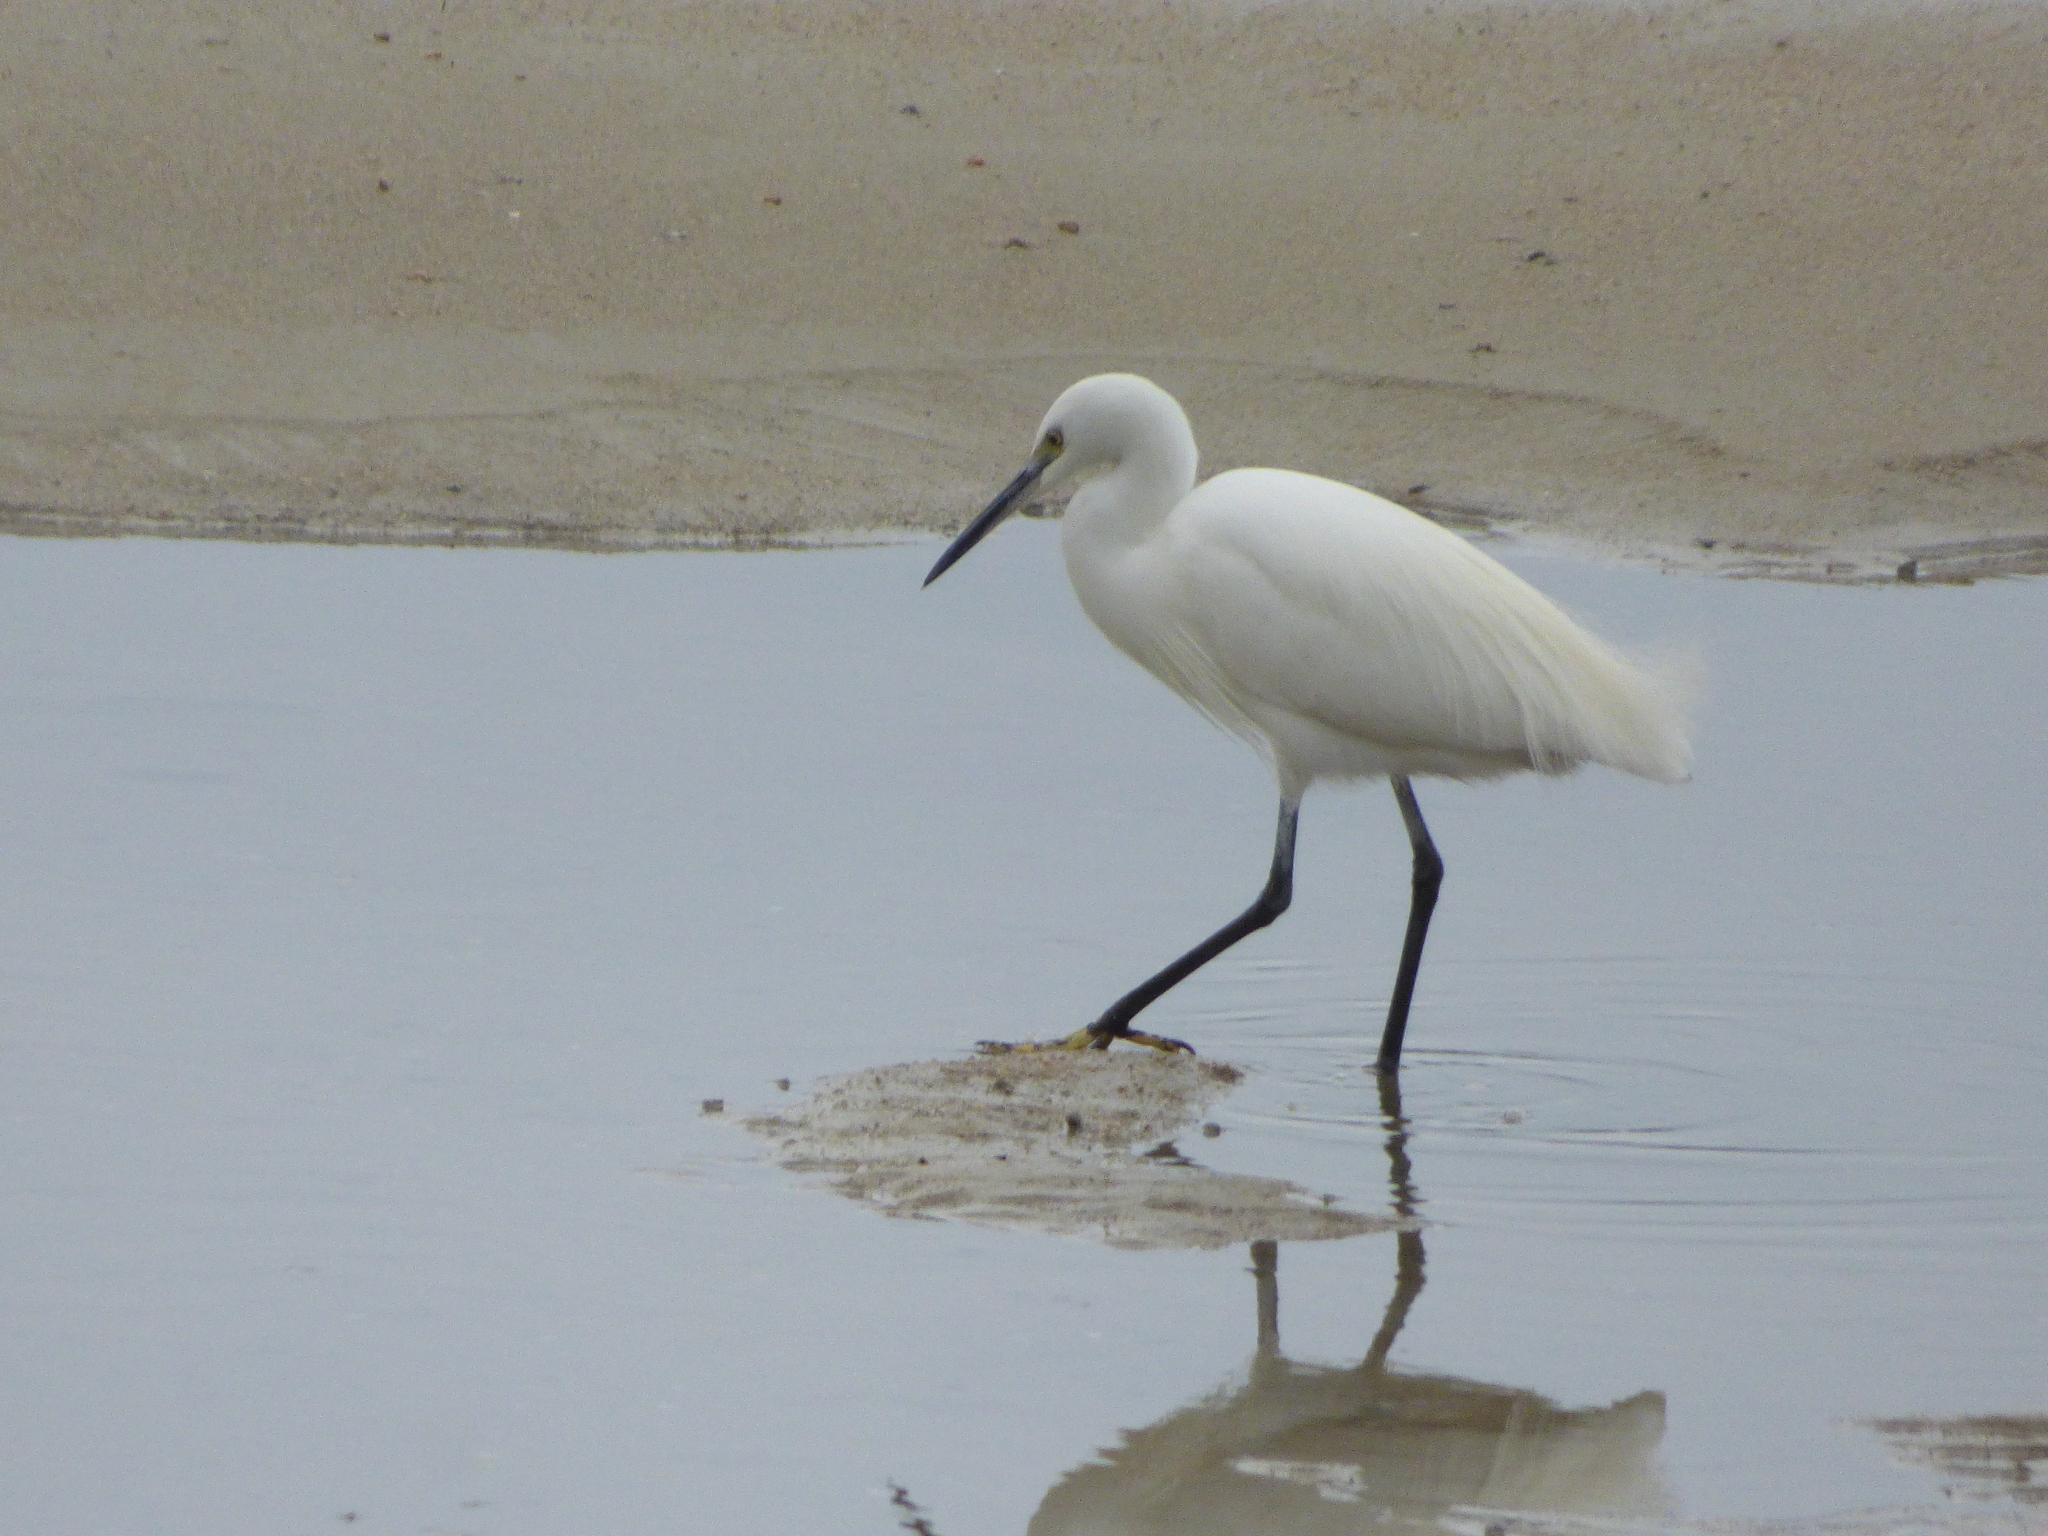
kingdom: Animalia
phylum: Chordata
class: Aves
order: Pelecaniformes
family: Ardeidae
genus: Egretta
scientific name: Egretta garzetta
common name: Little egret
